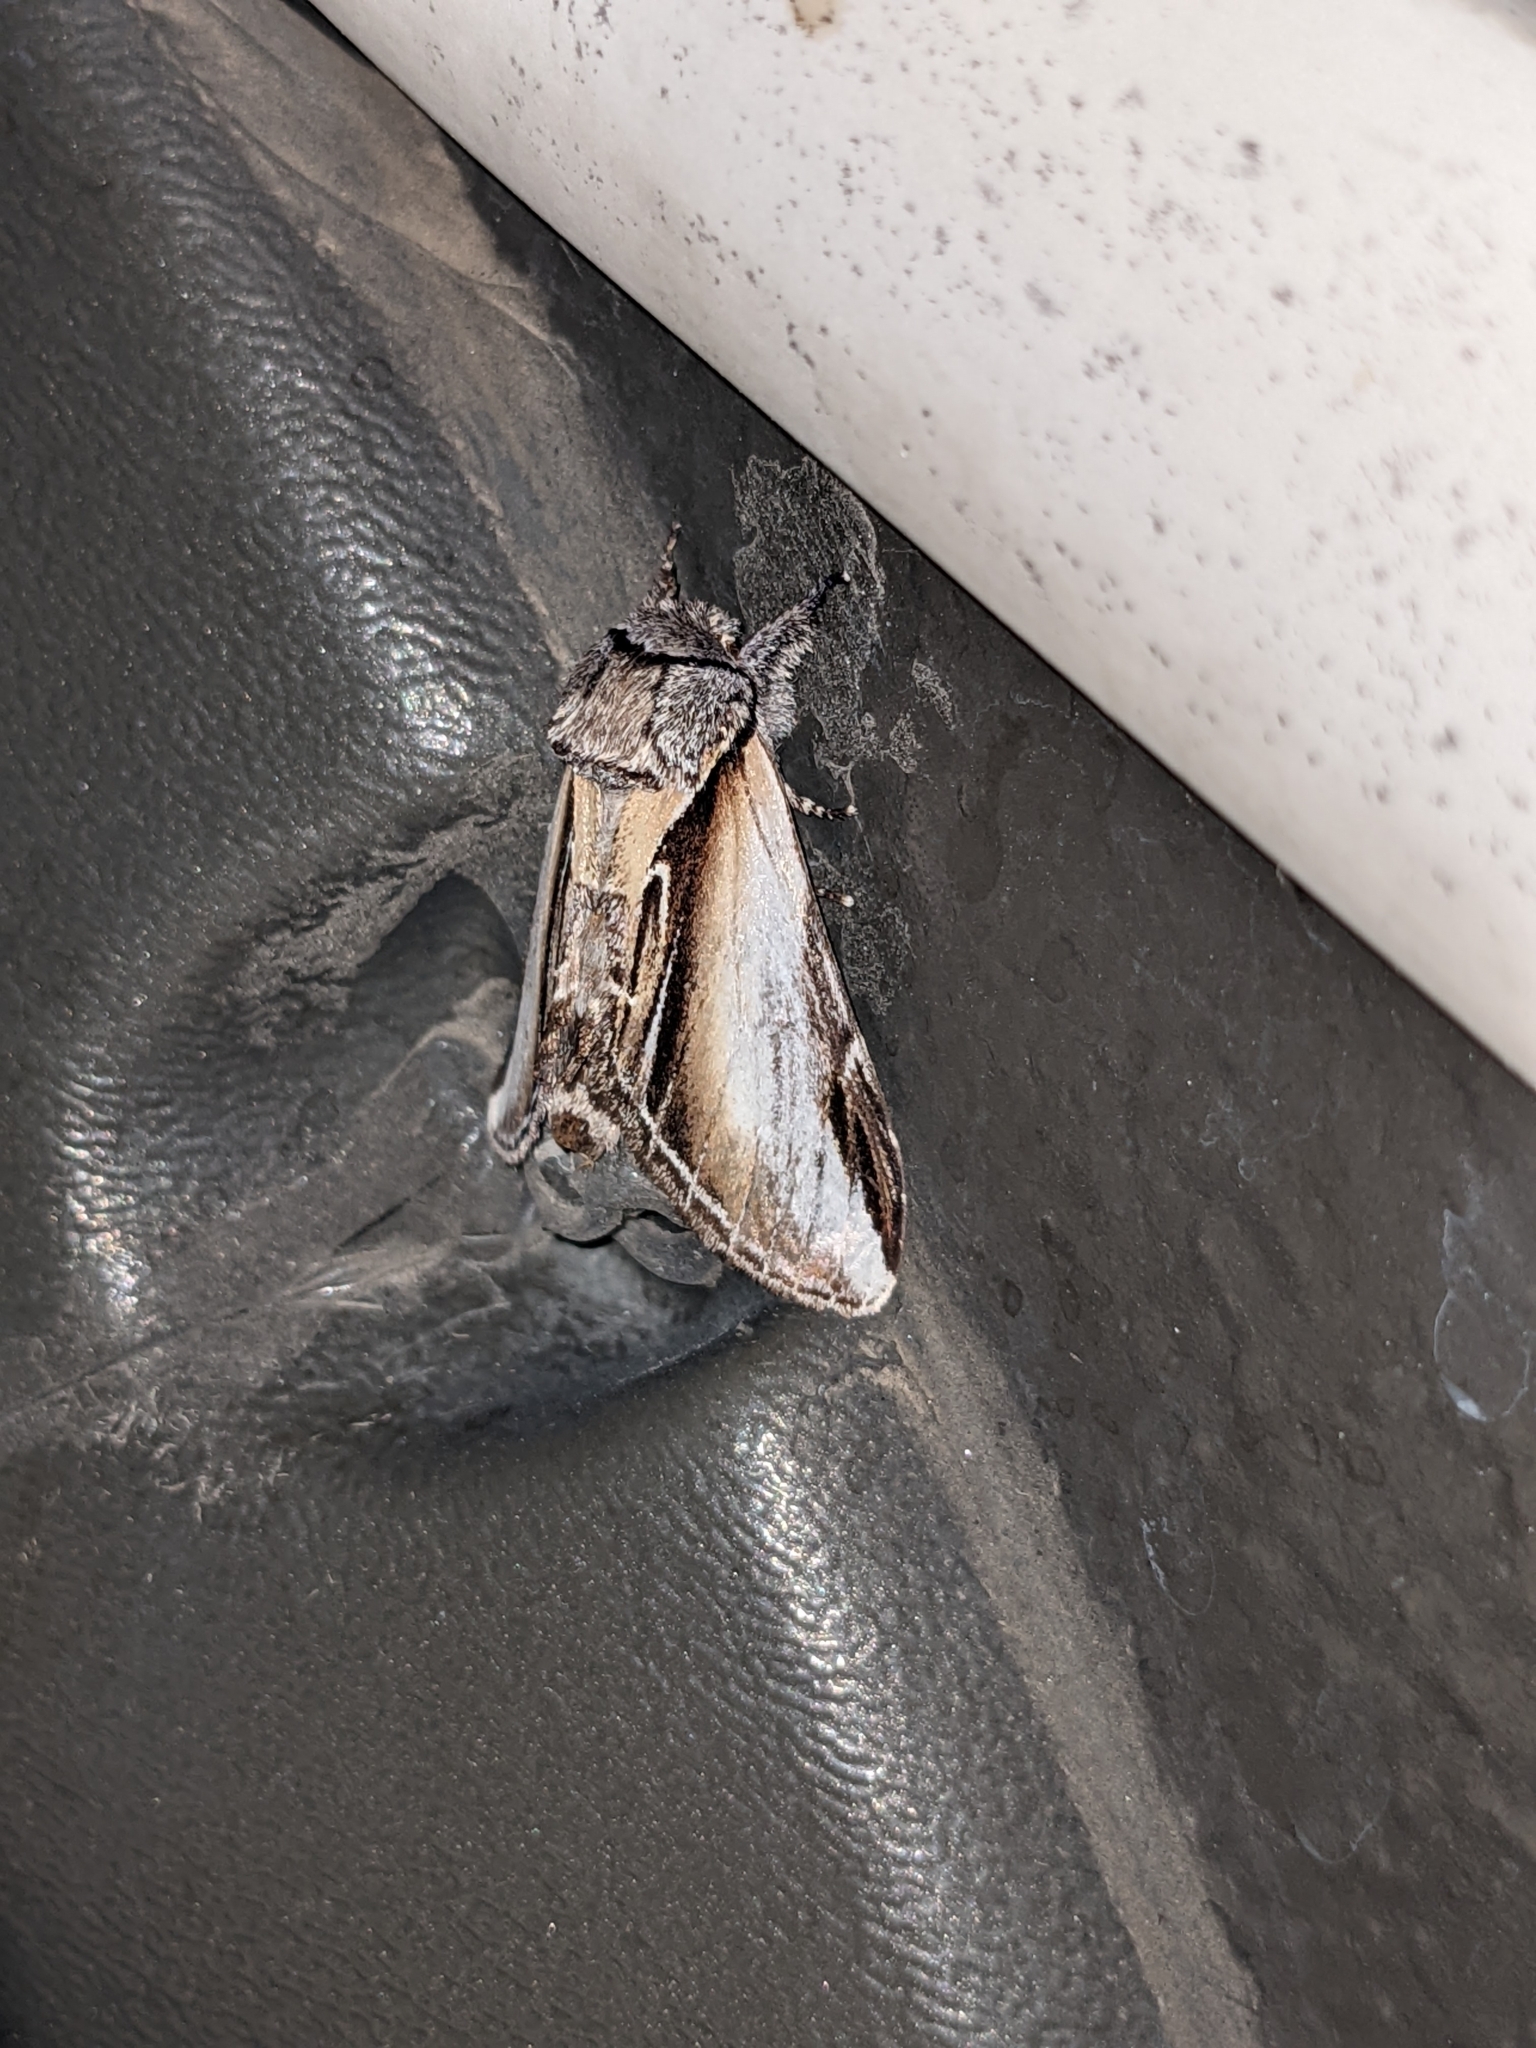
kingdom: Animalia
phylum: Arthropoda
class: Insecta
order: Lepidoptera
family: Notodontidae
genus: Pheosia
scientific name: Pheosia rimosa
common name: Black-rimmed prominent
